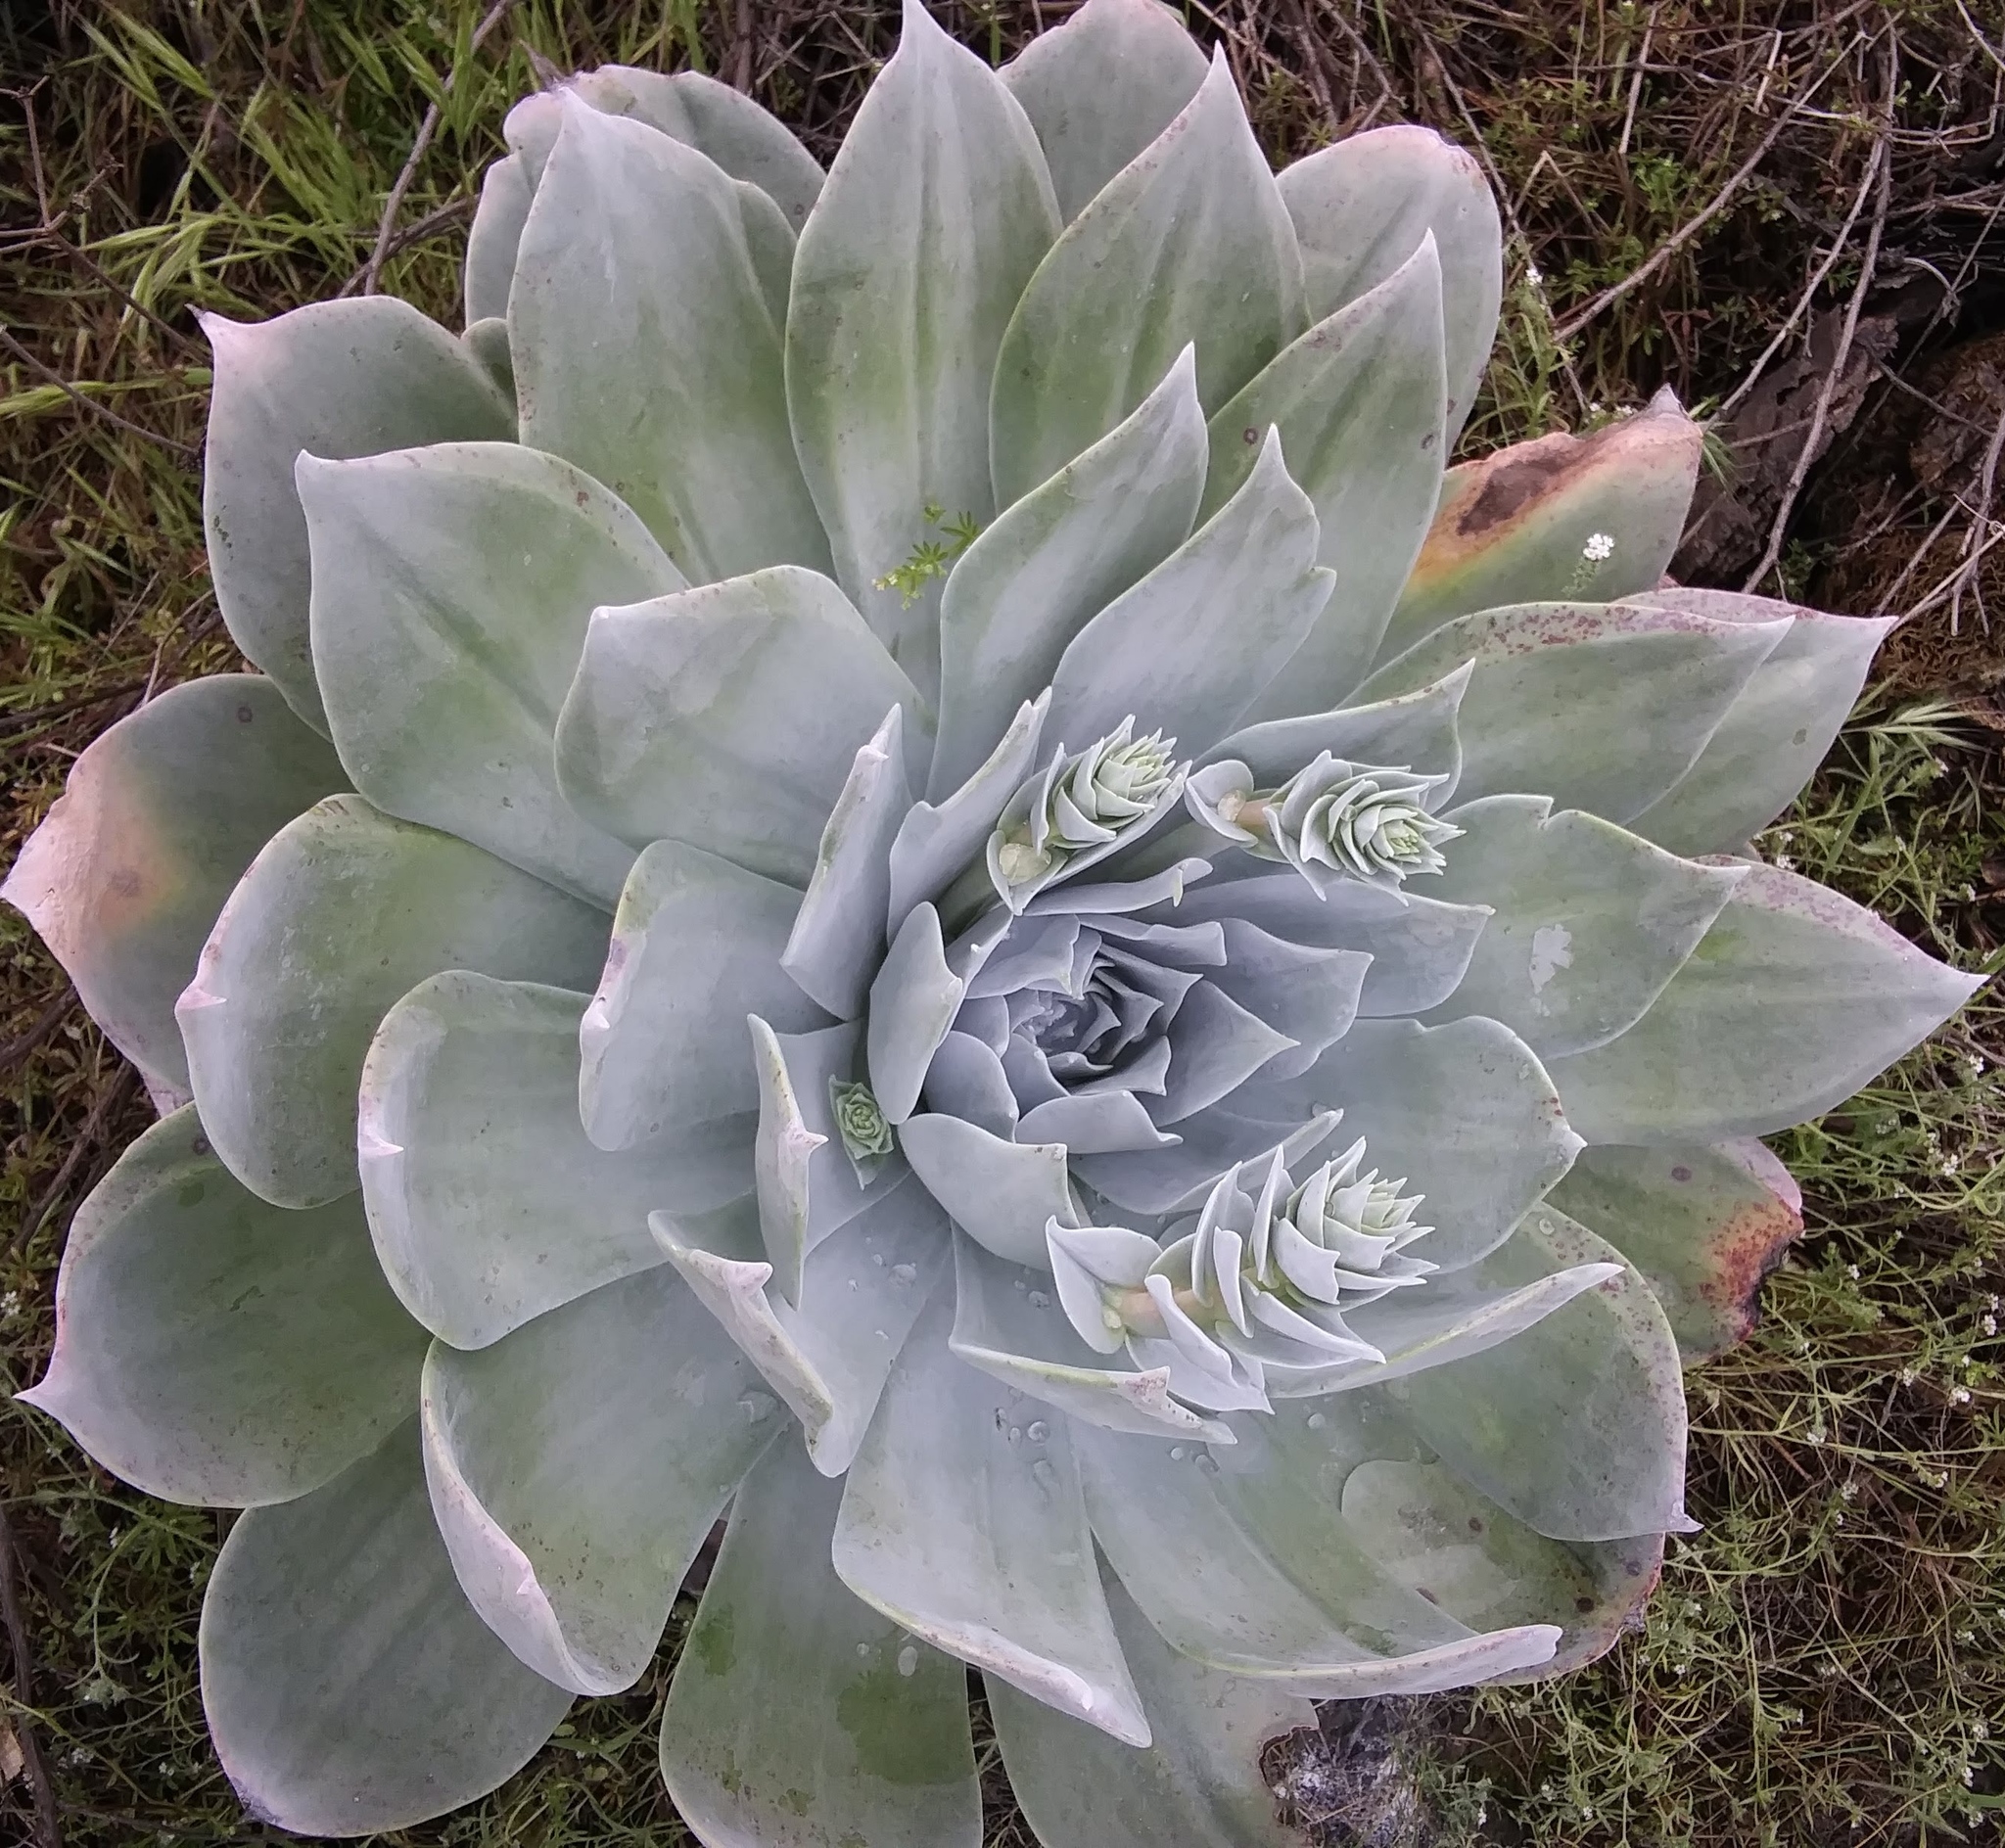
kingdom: Plantae
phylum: Tracheophyta
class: Magnoliopsida
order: Saxifragales
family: Crassulaceae
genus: Dudleya
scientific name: Dudleya pulverulenta
